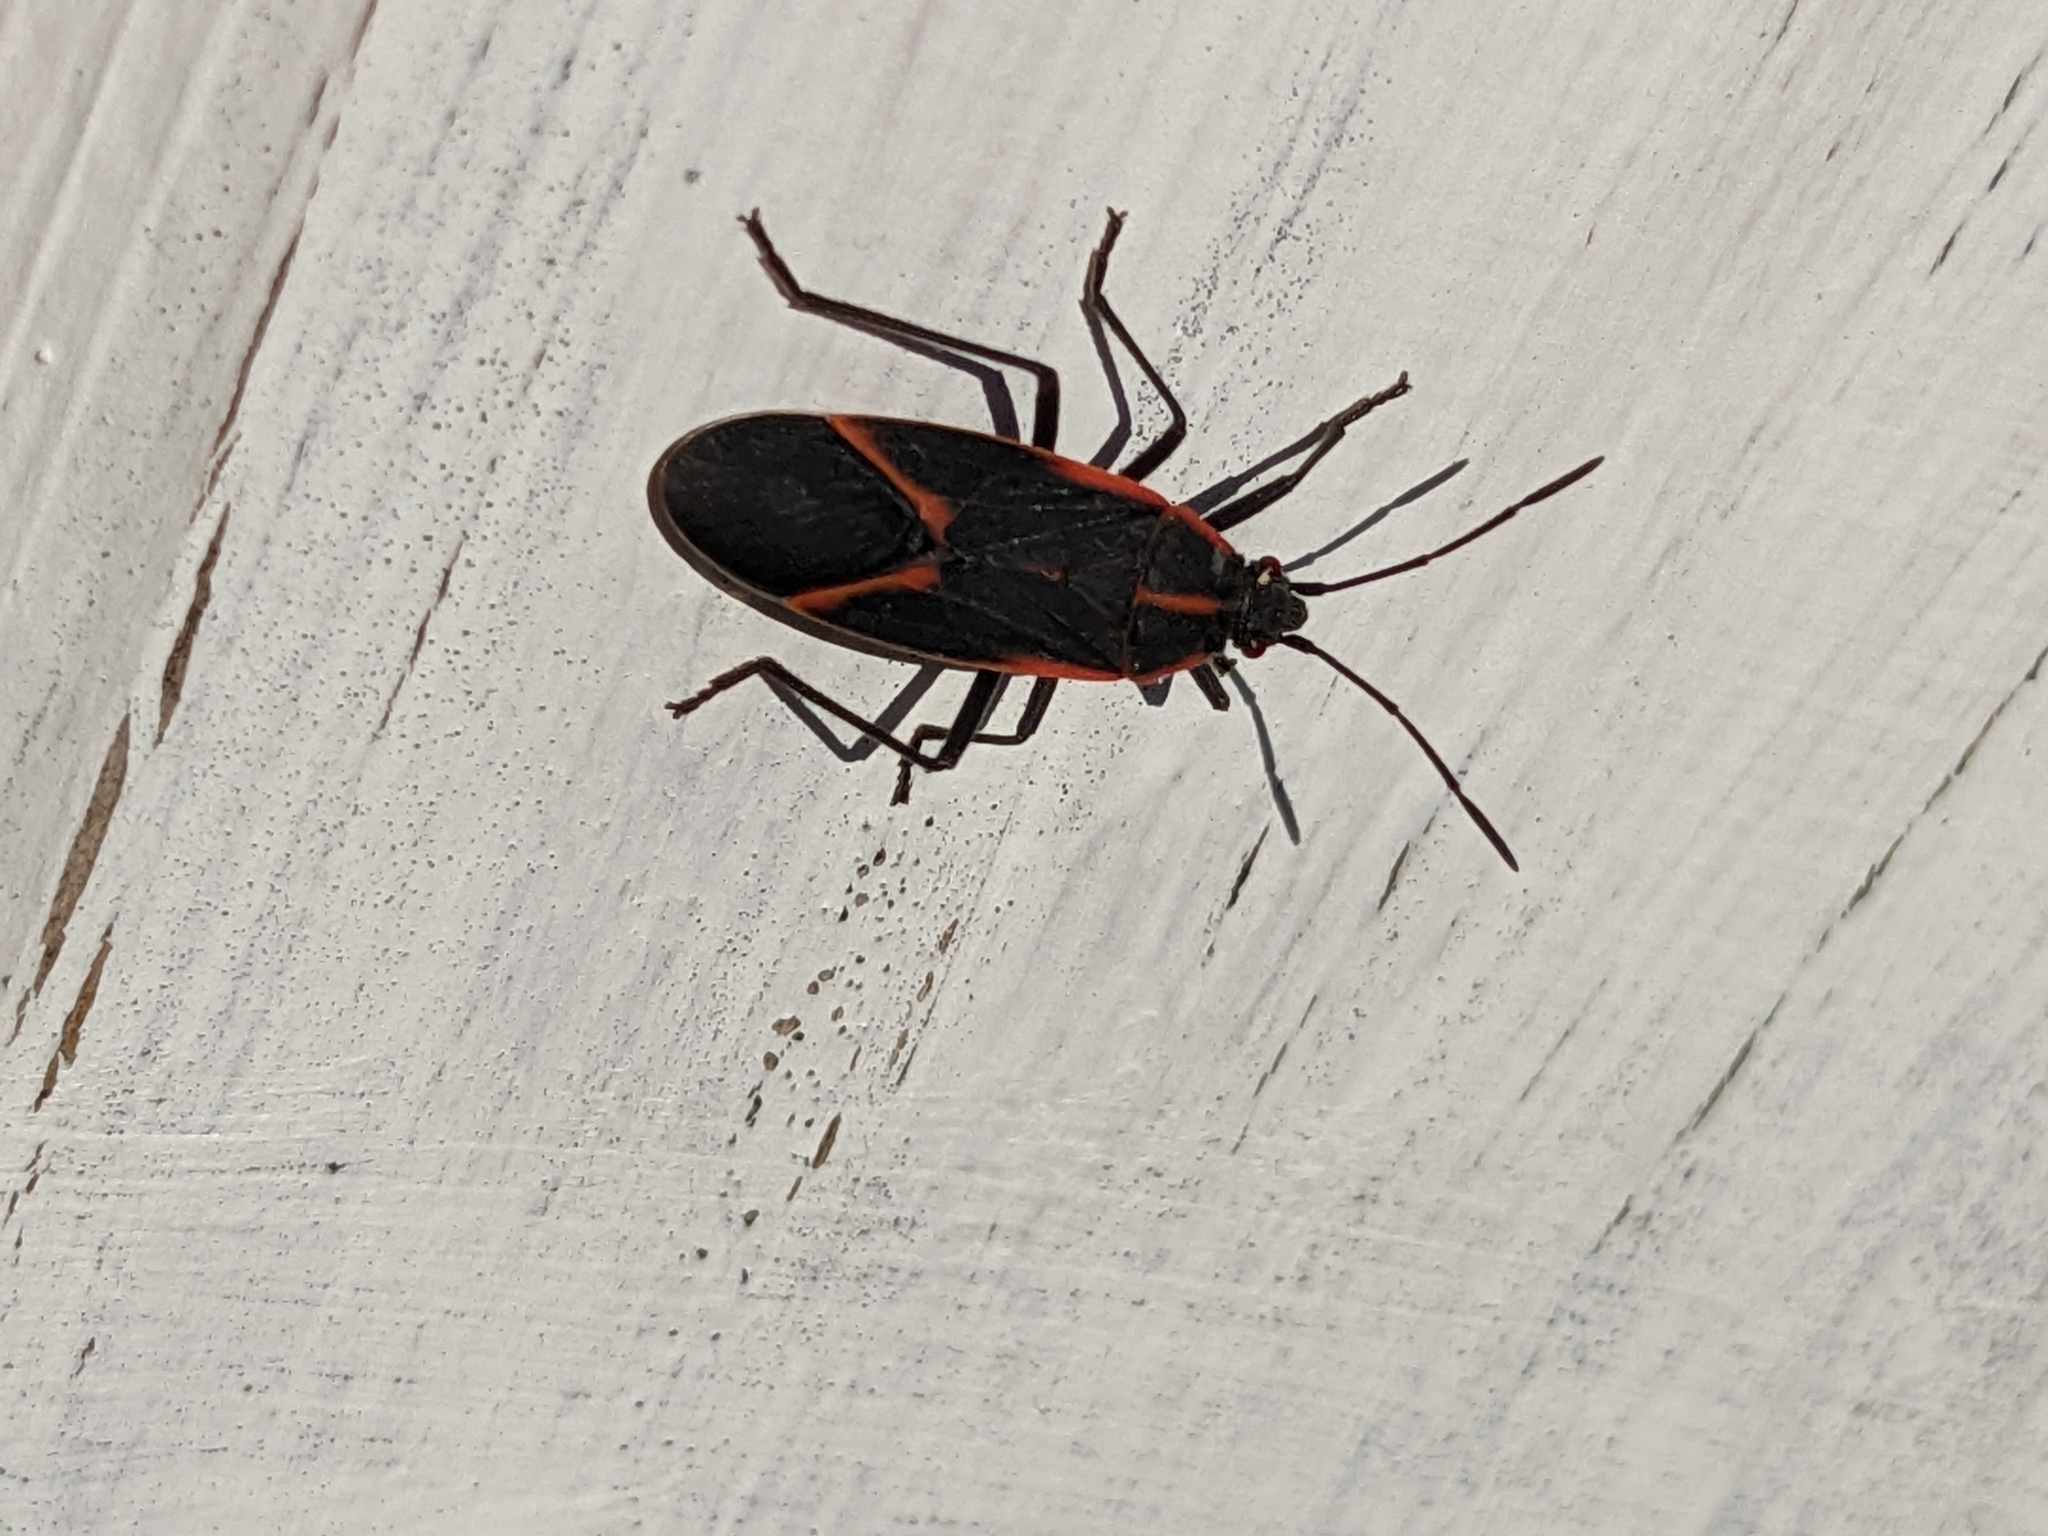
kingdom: Animalia
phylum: Arthropoda
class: Insecta
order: Hemiptera
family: Rhopalidae
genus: Boisea
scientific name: Boisea trivittata
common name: Boxelder bug
